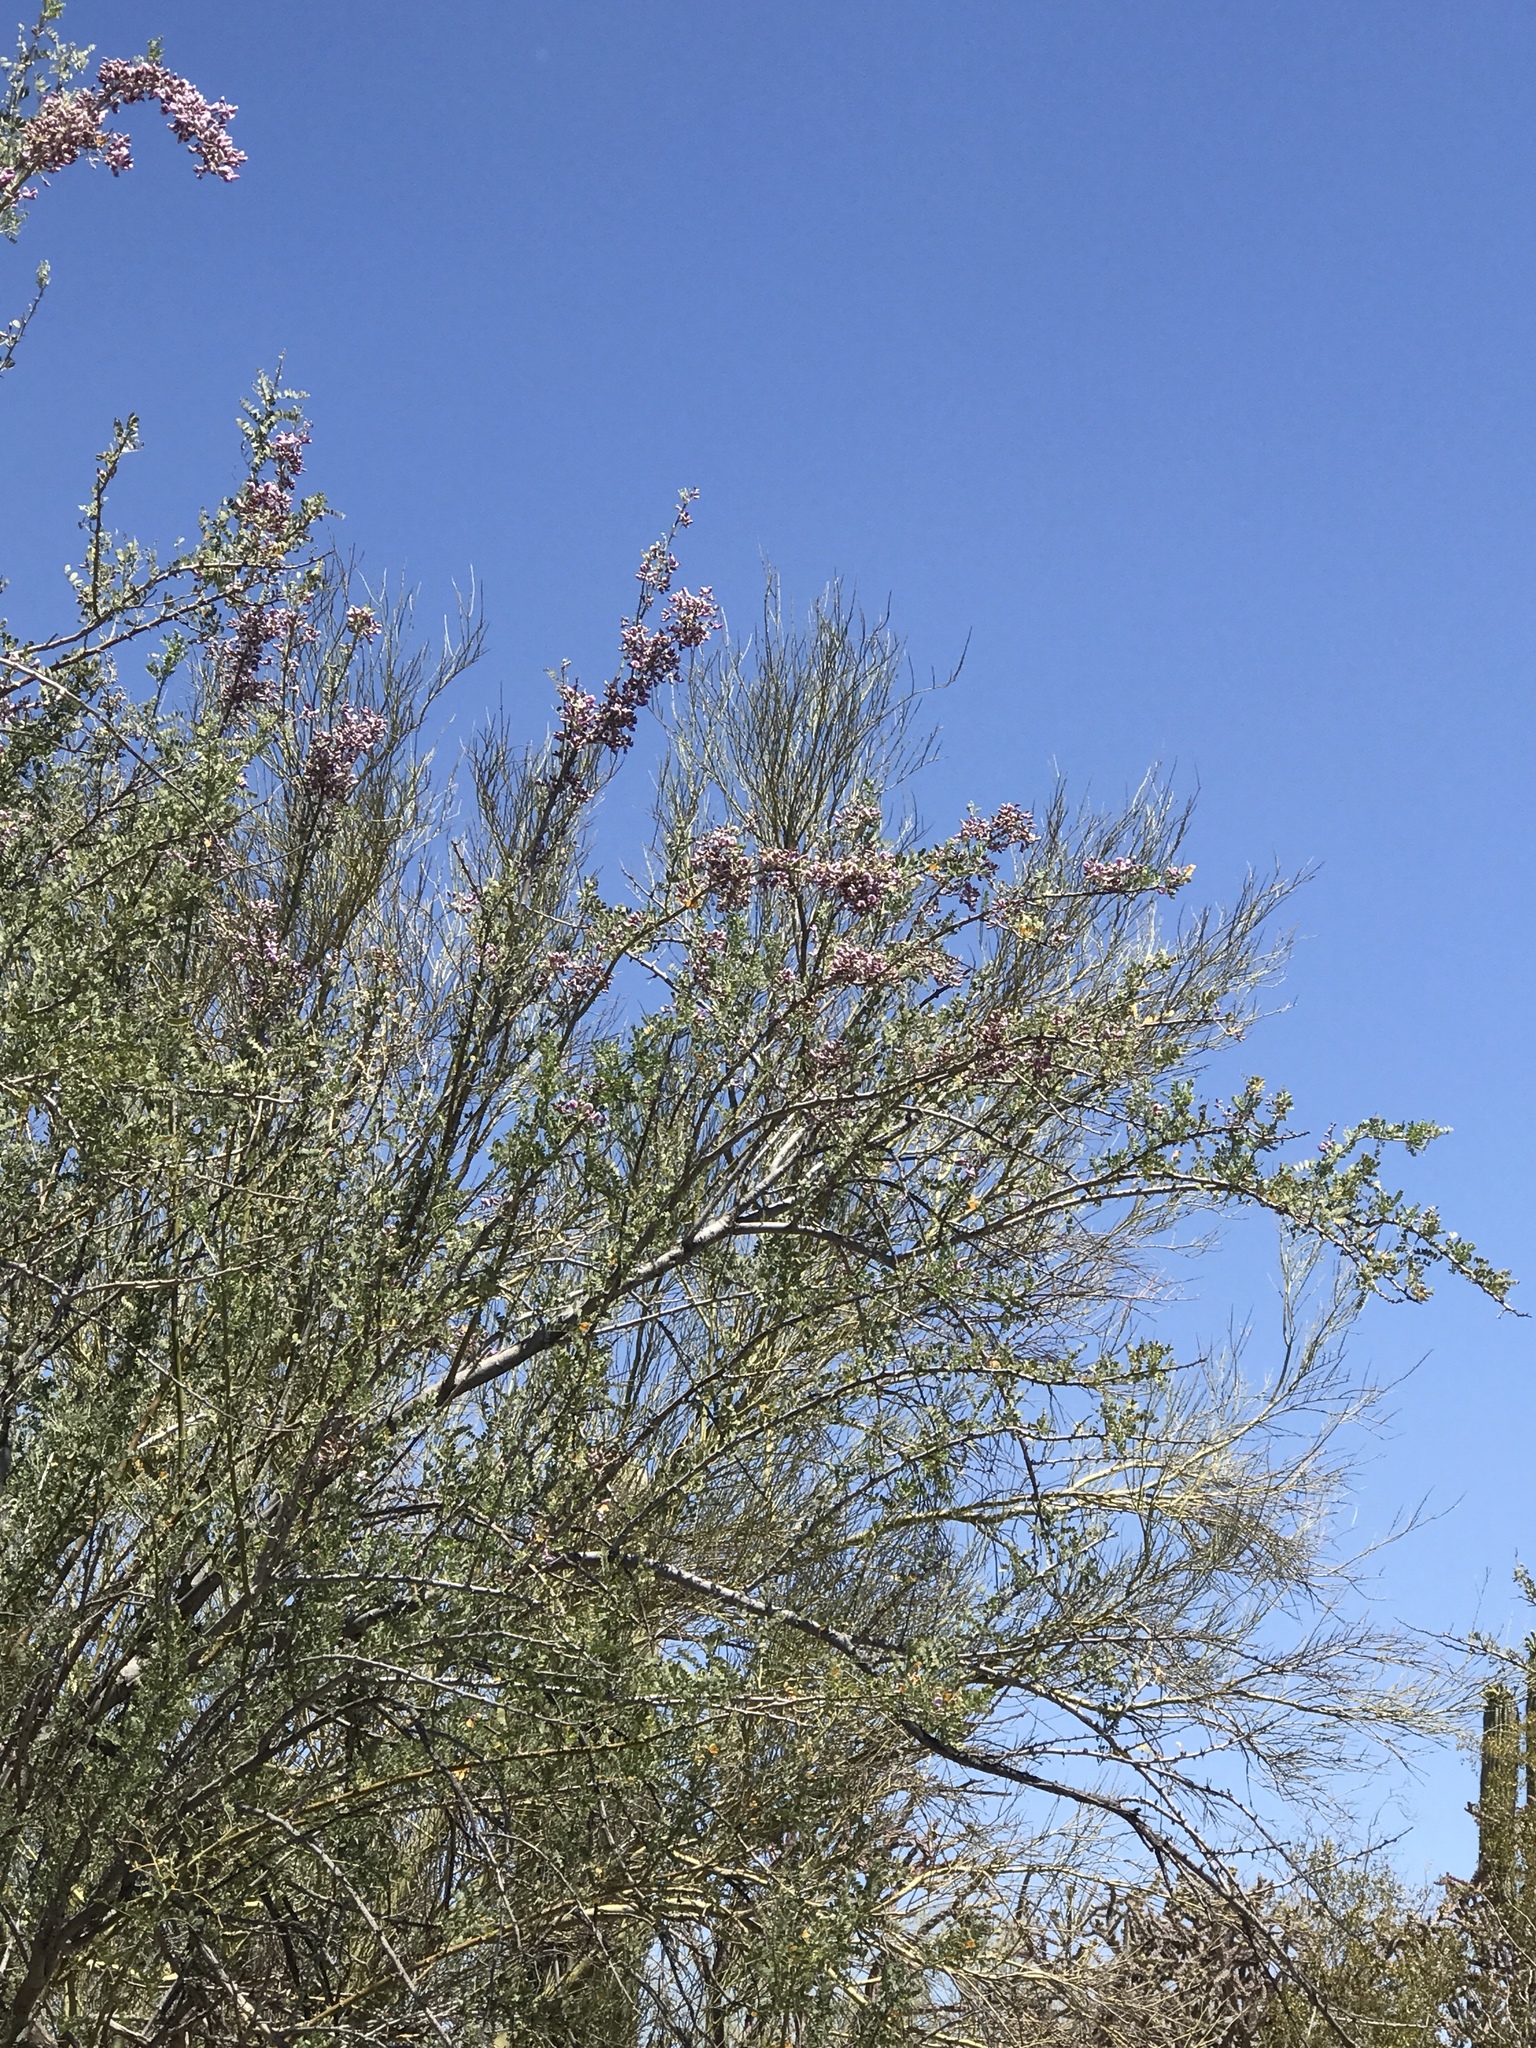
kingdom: Plantae
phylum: Tracheophyta
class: Magnoliopsida
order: Fabales
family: Fabaceae
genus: Olneya
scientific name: Olneya tesota
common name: Desert ironwood
